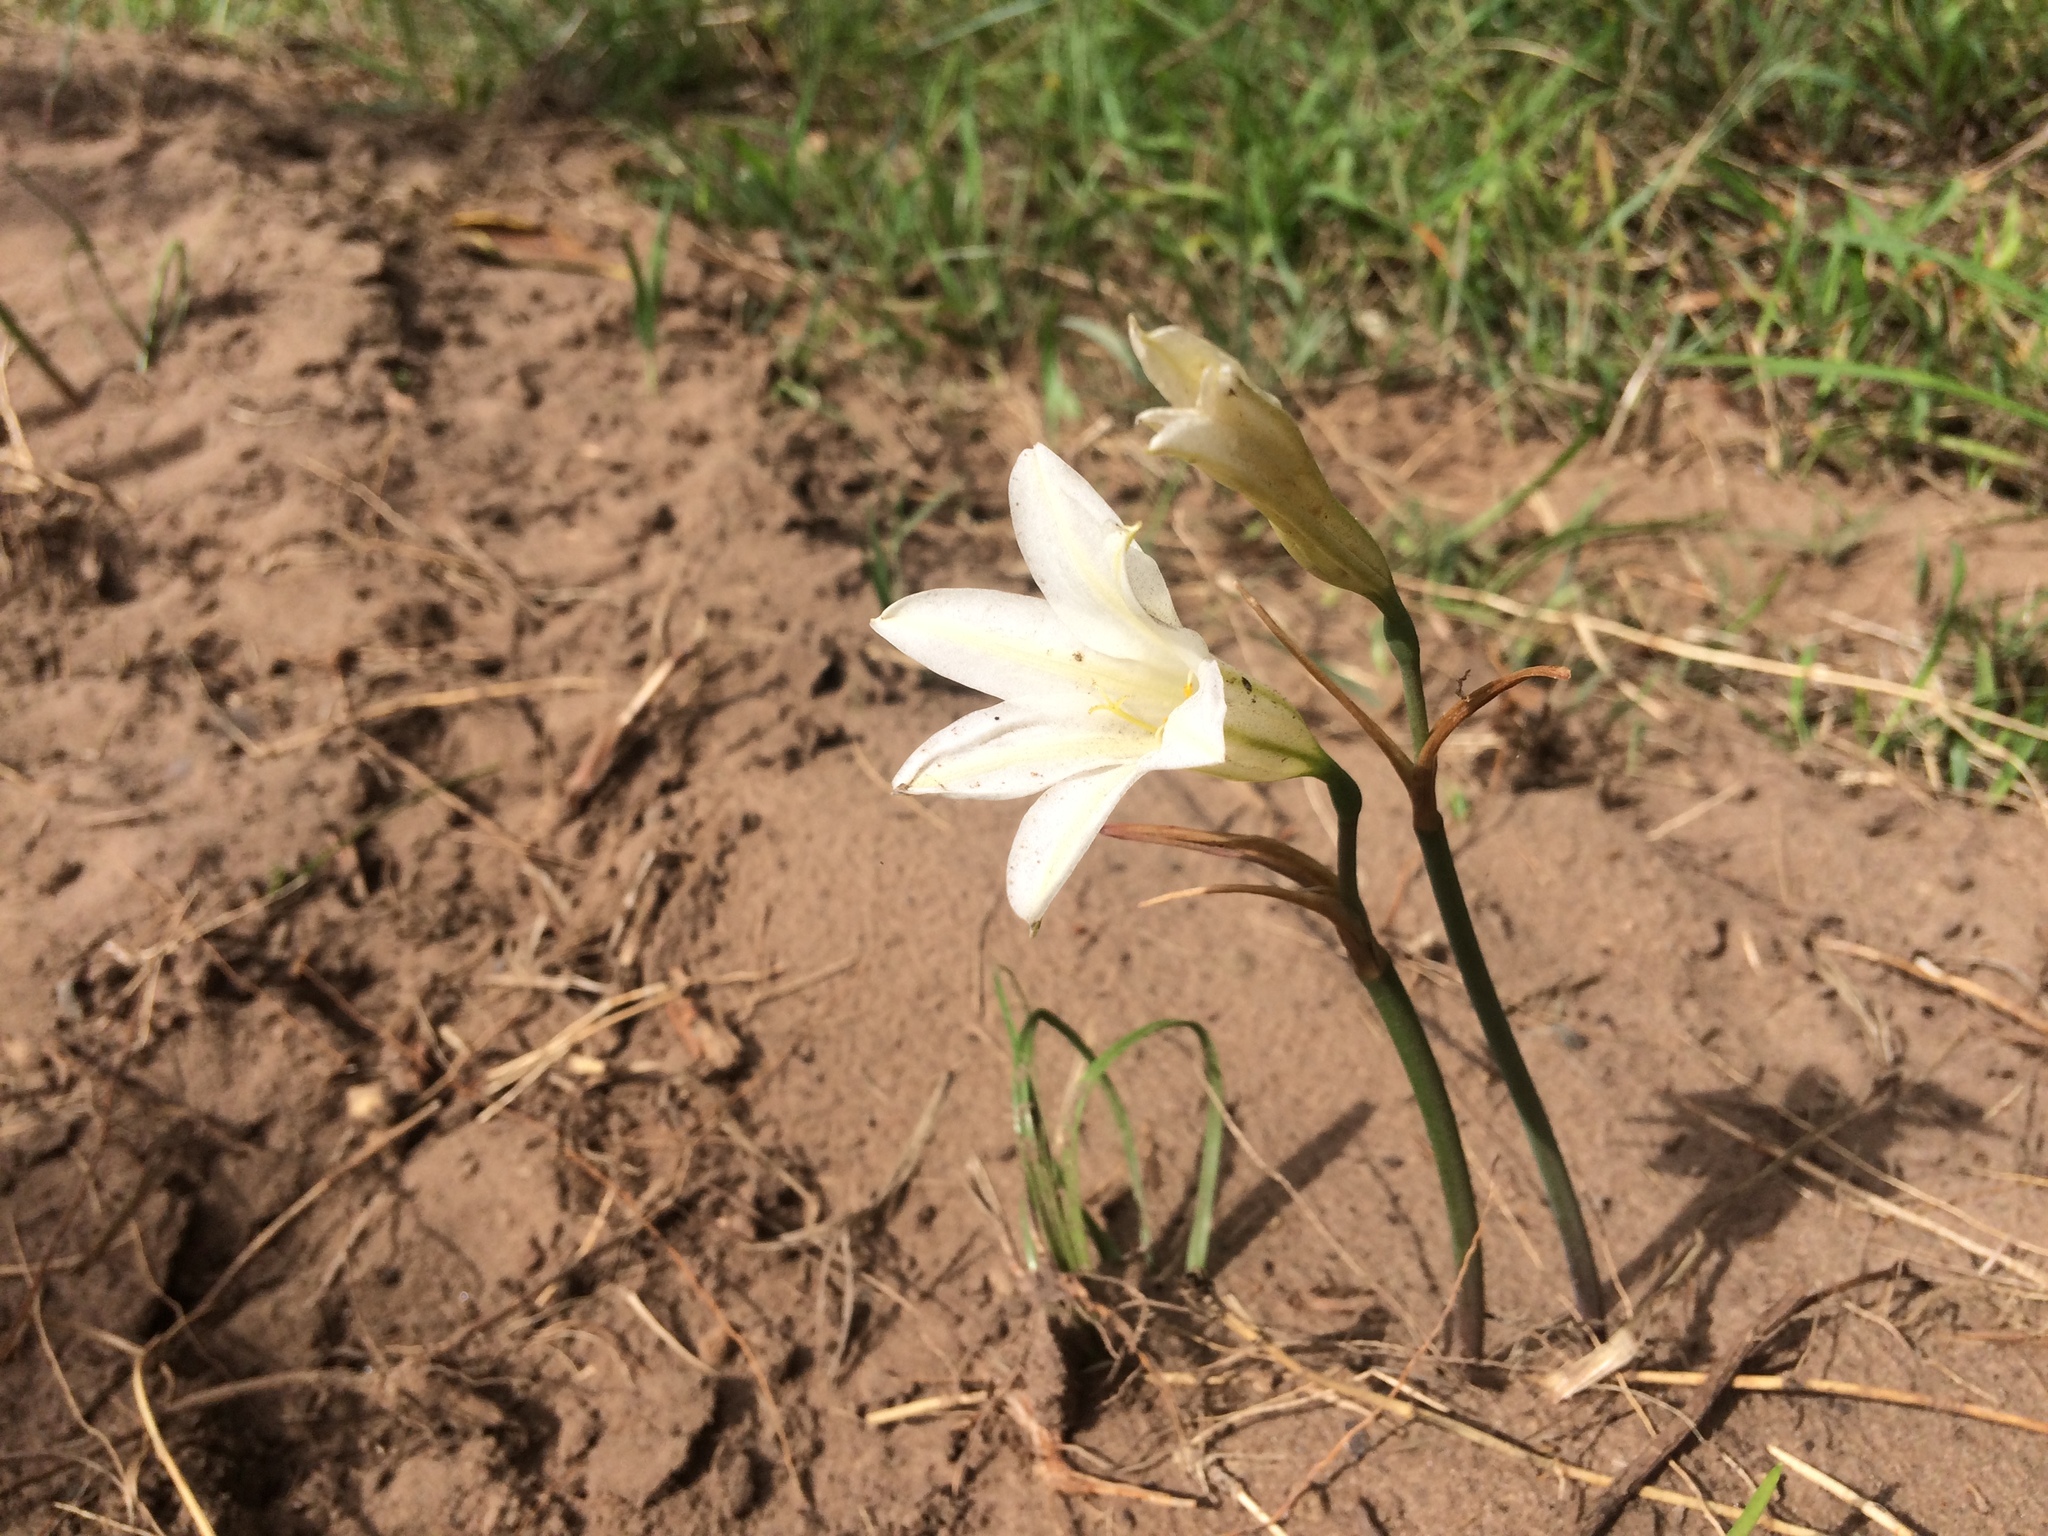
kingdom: Plantae
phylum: Tracheophyta
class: Liliopsida
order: Asparagales
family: Amaryllidaceae
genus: Cyrtanthus
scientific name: Cyrtanthus loddigesianus
